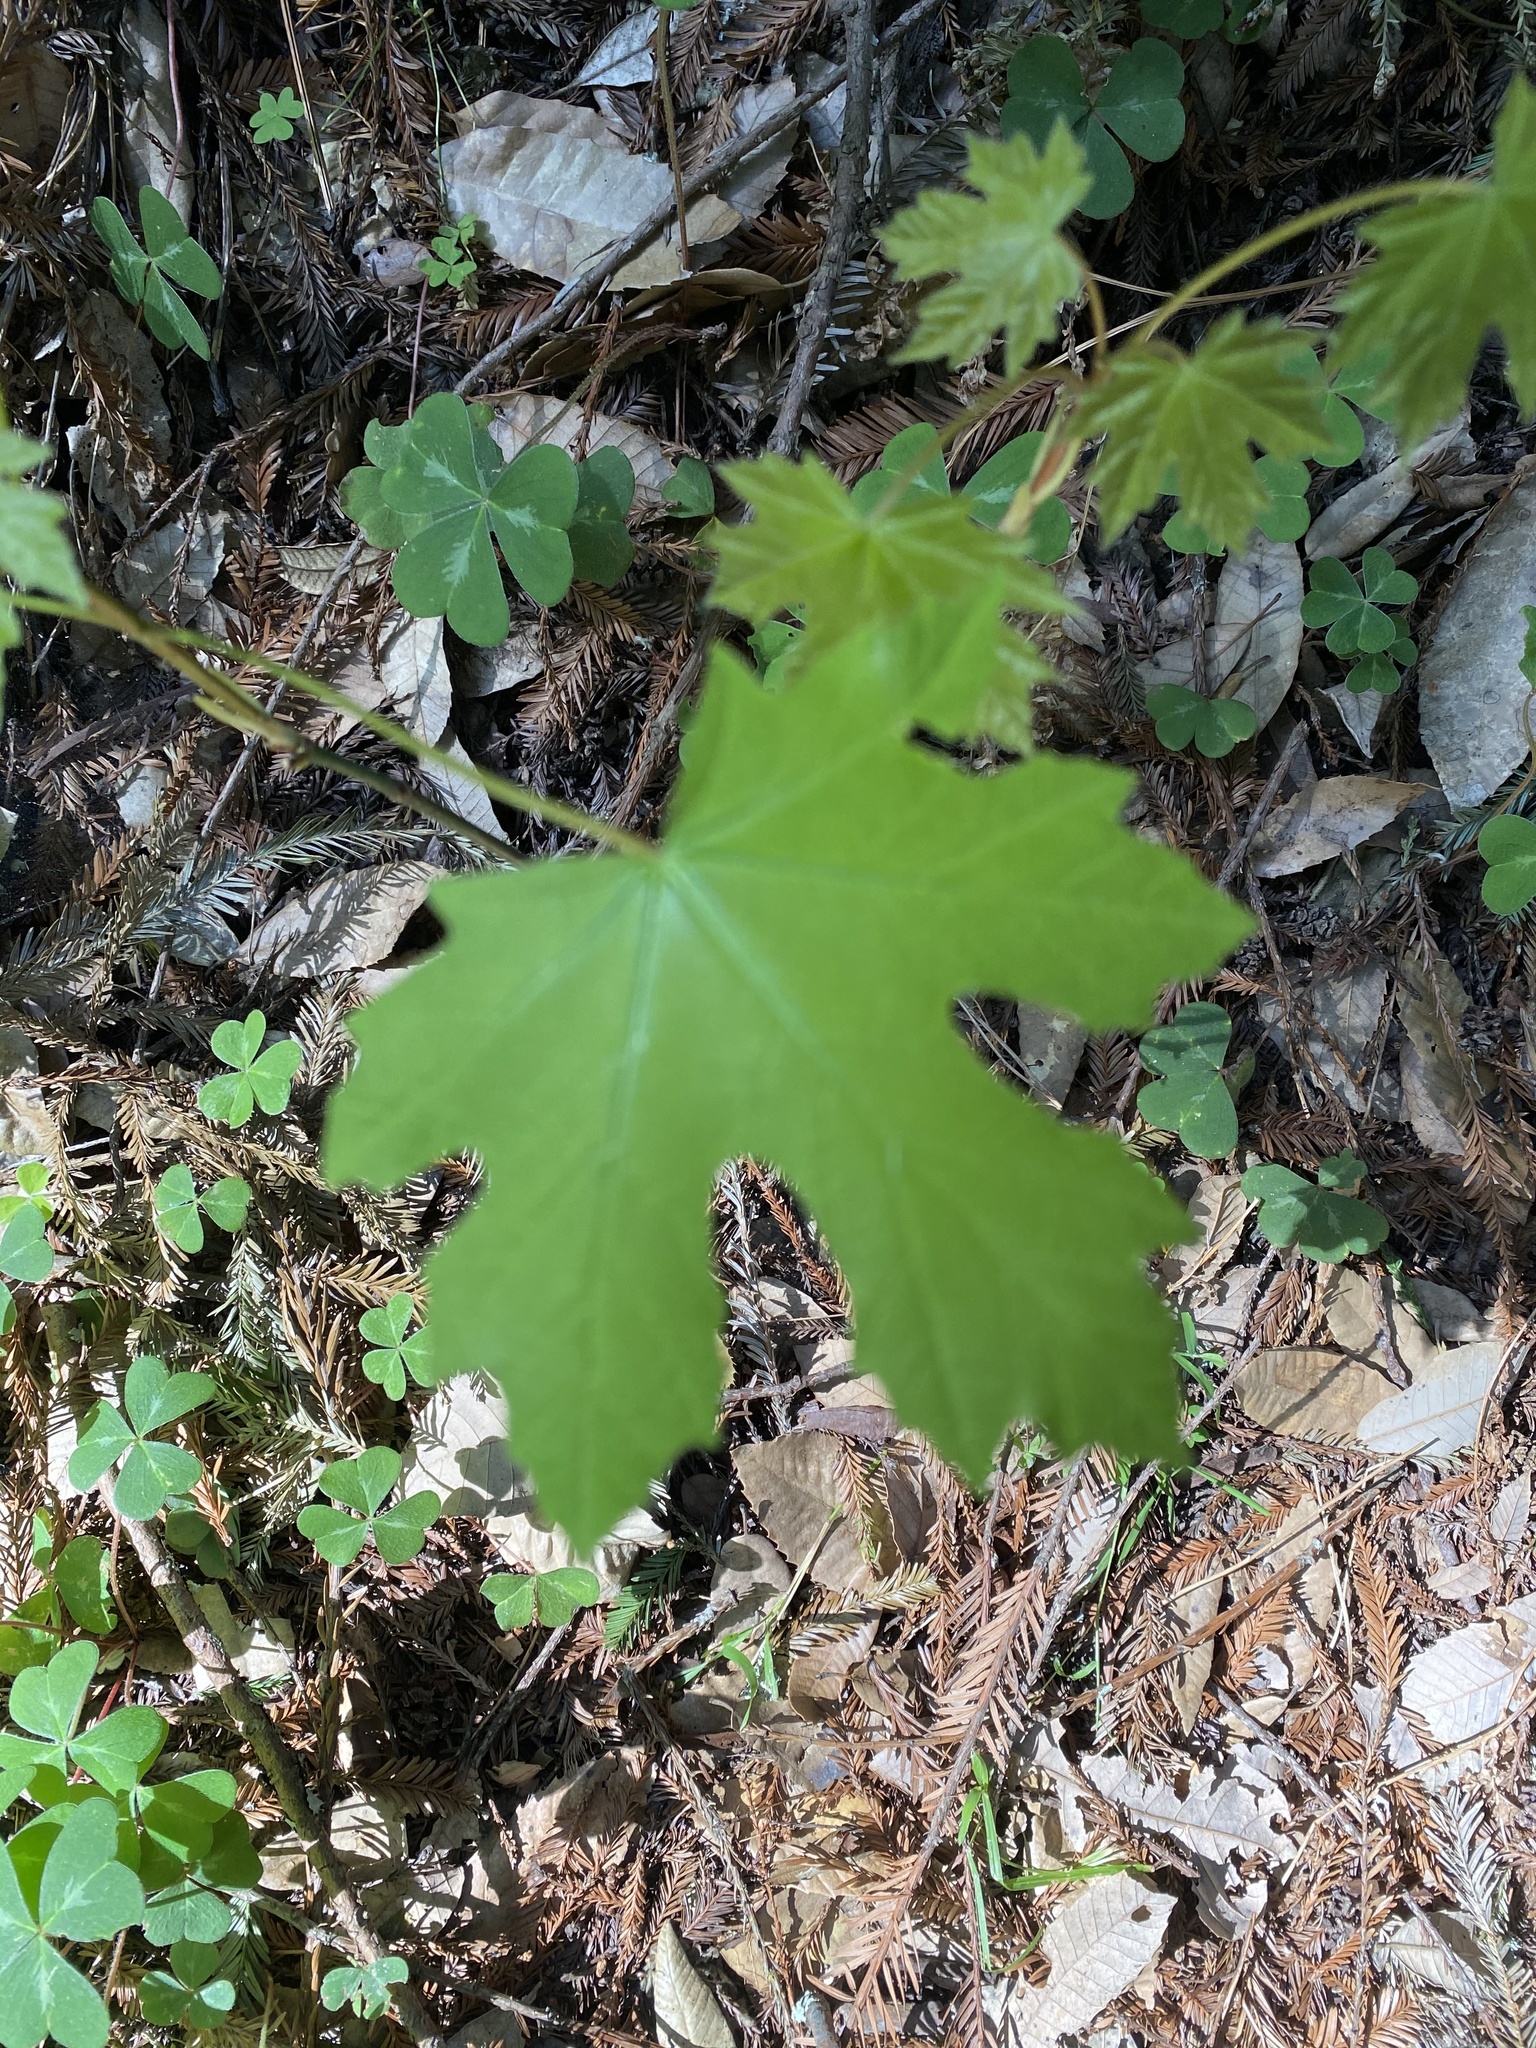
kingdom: Plantae
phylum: Tracheophyta
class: Magnoliopsida
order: Sapindales
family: Sapindaceae
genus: Acer
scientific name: Acer macrophyllum
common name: Oregon maple
